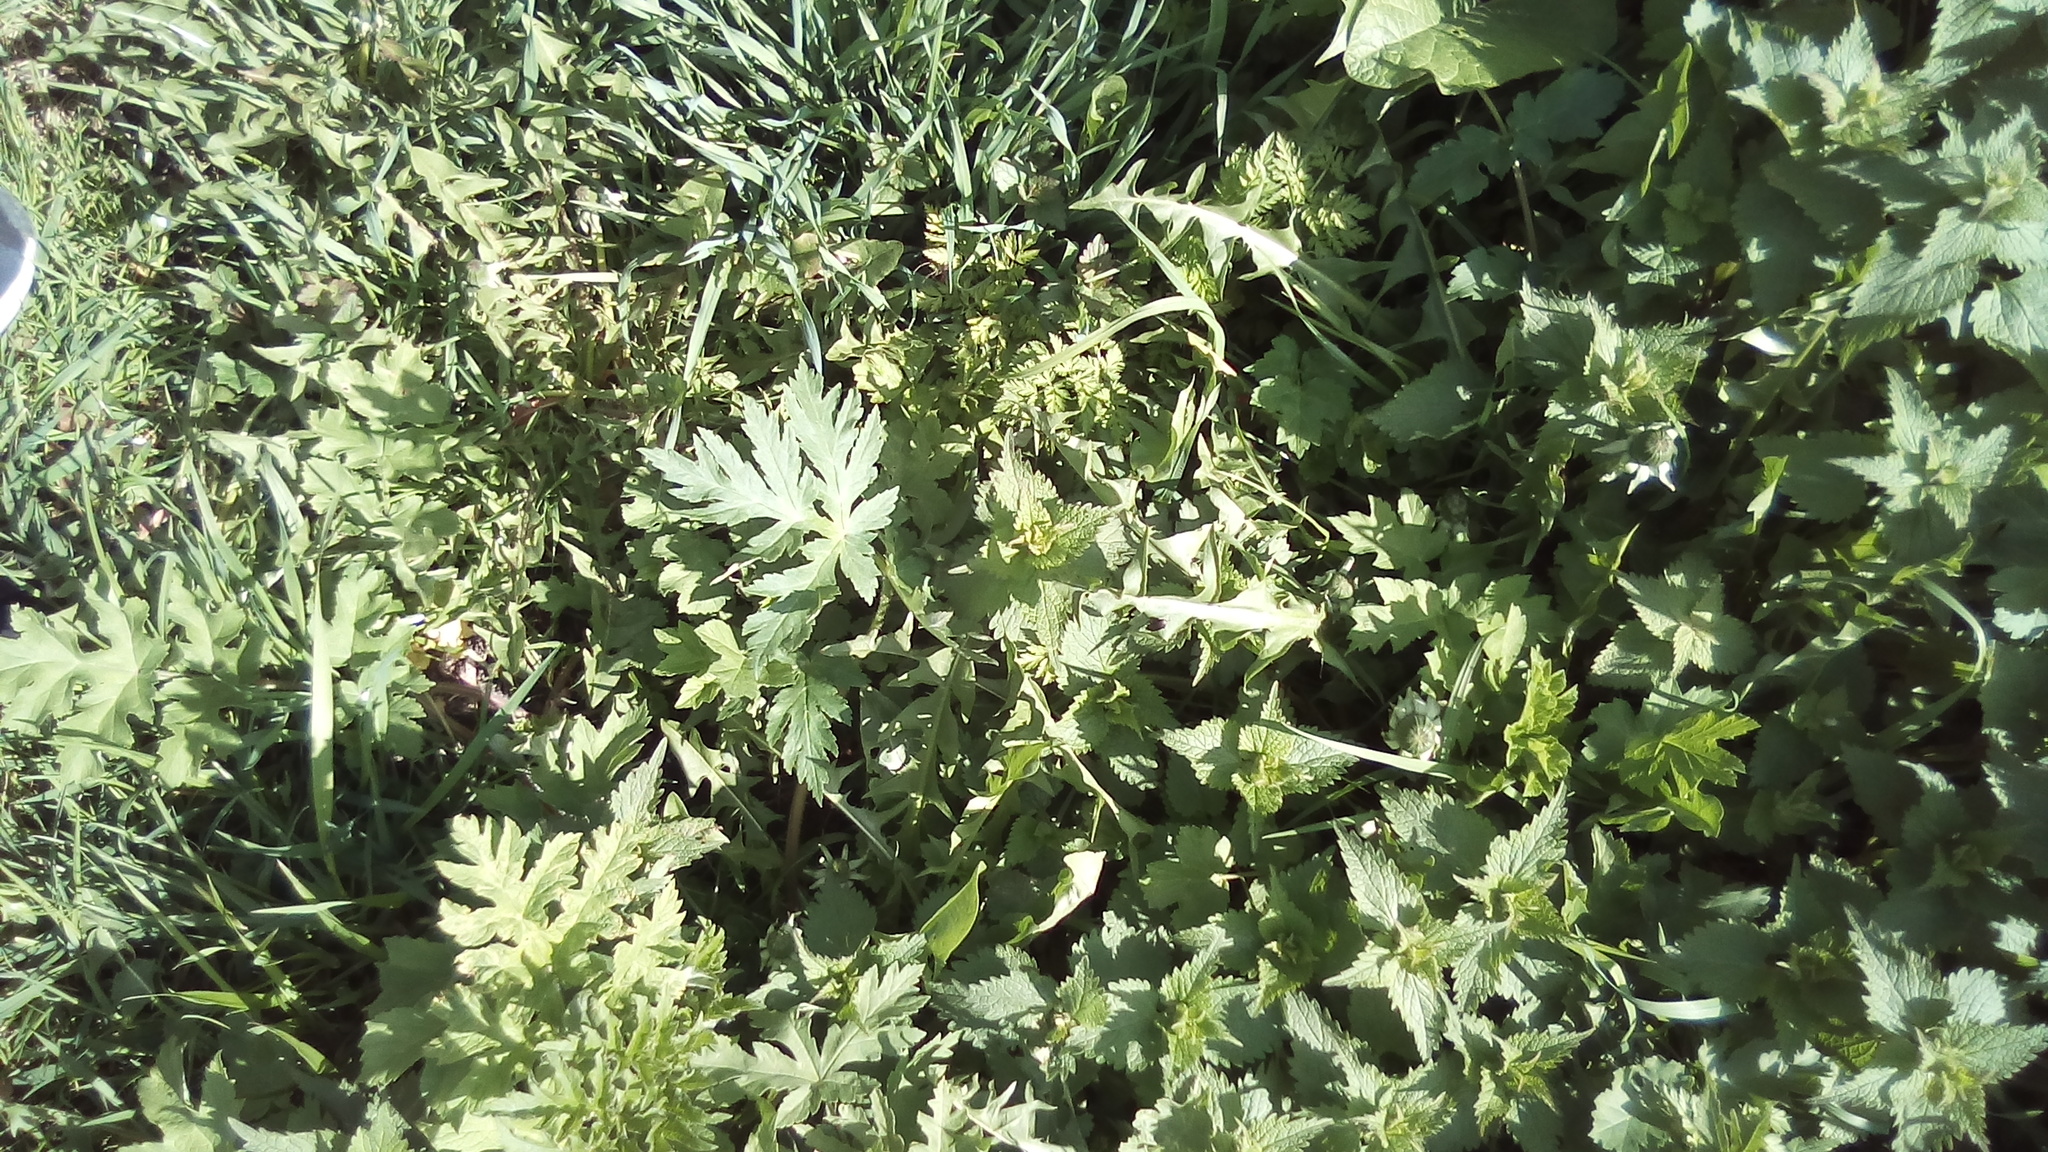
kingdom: Plantae
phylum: Tracheophyta
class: Magnoliopsida
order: Lamiales
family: Lamiaceae
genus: Lamium
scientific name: Lamium album
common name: White dead-nettle
